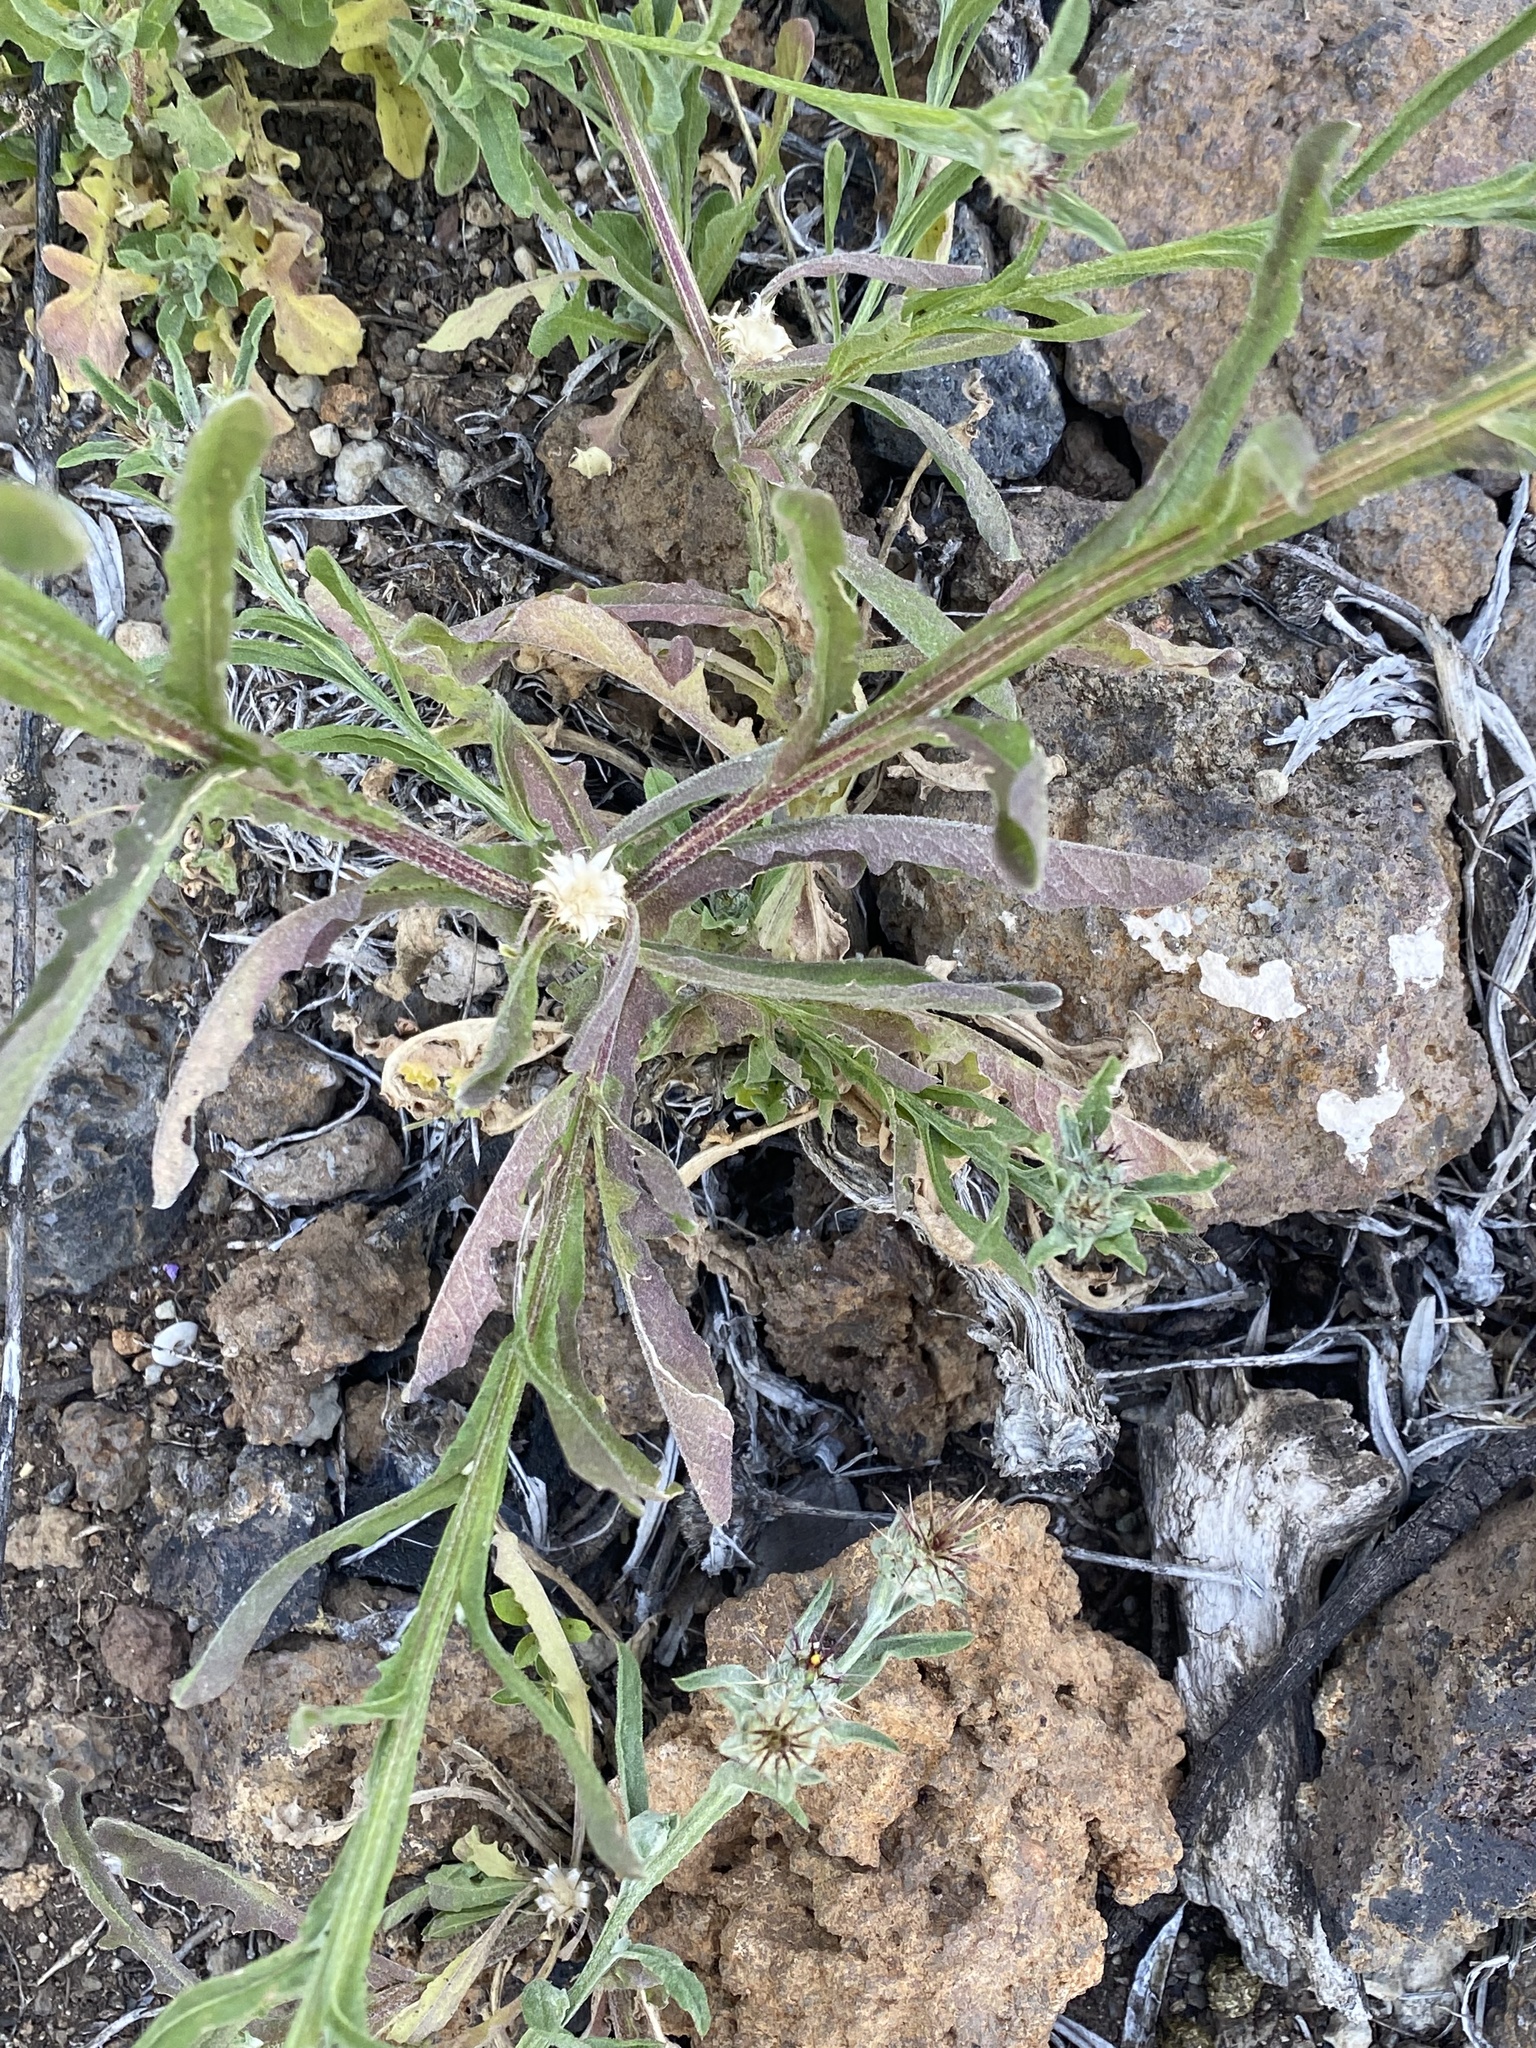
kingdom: Plantae
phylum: Tracheophyta
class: Magnoliopsida
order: Asterales
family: Asteraceae
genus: Centaurea
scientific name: Centaurea melitensis
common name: Maltese star-thistle
